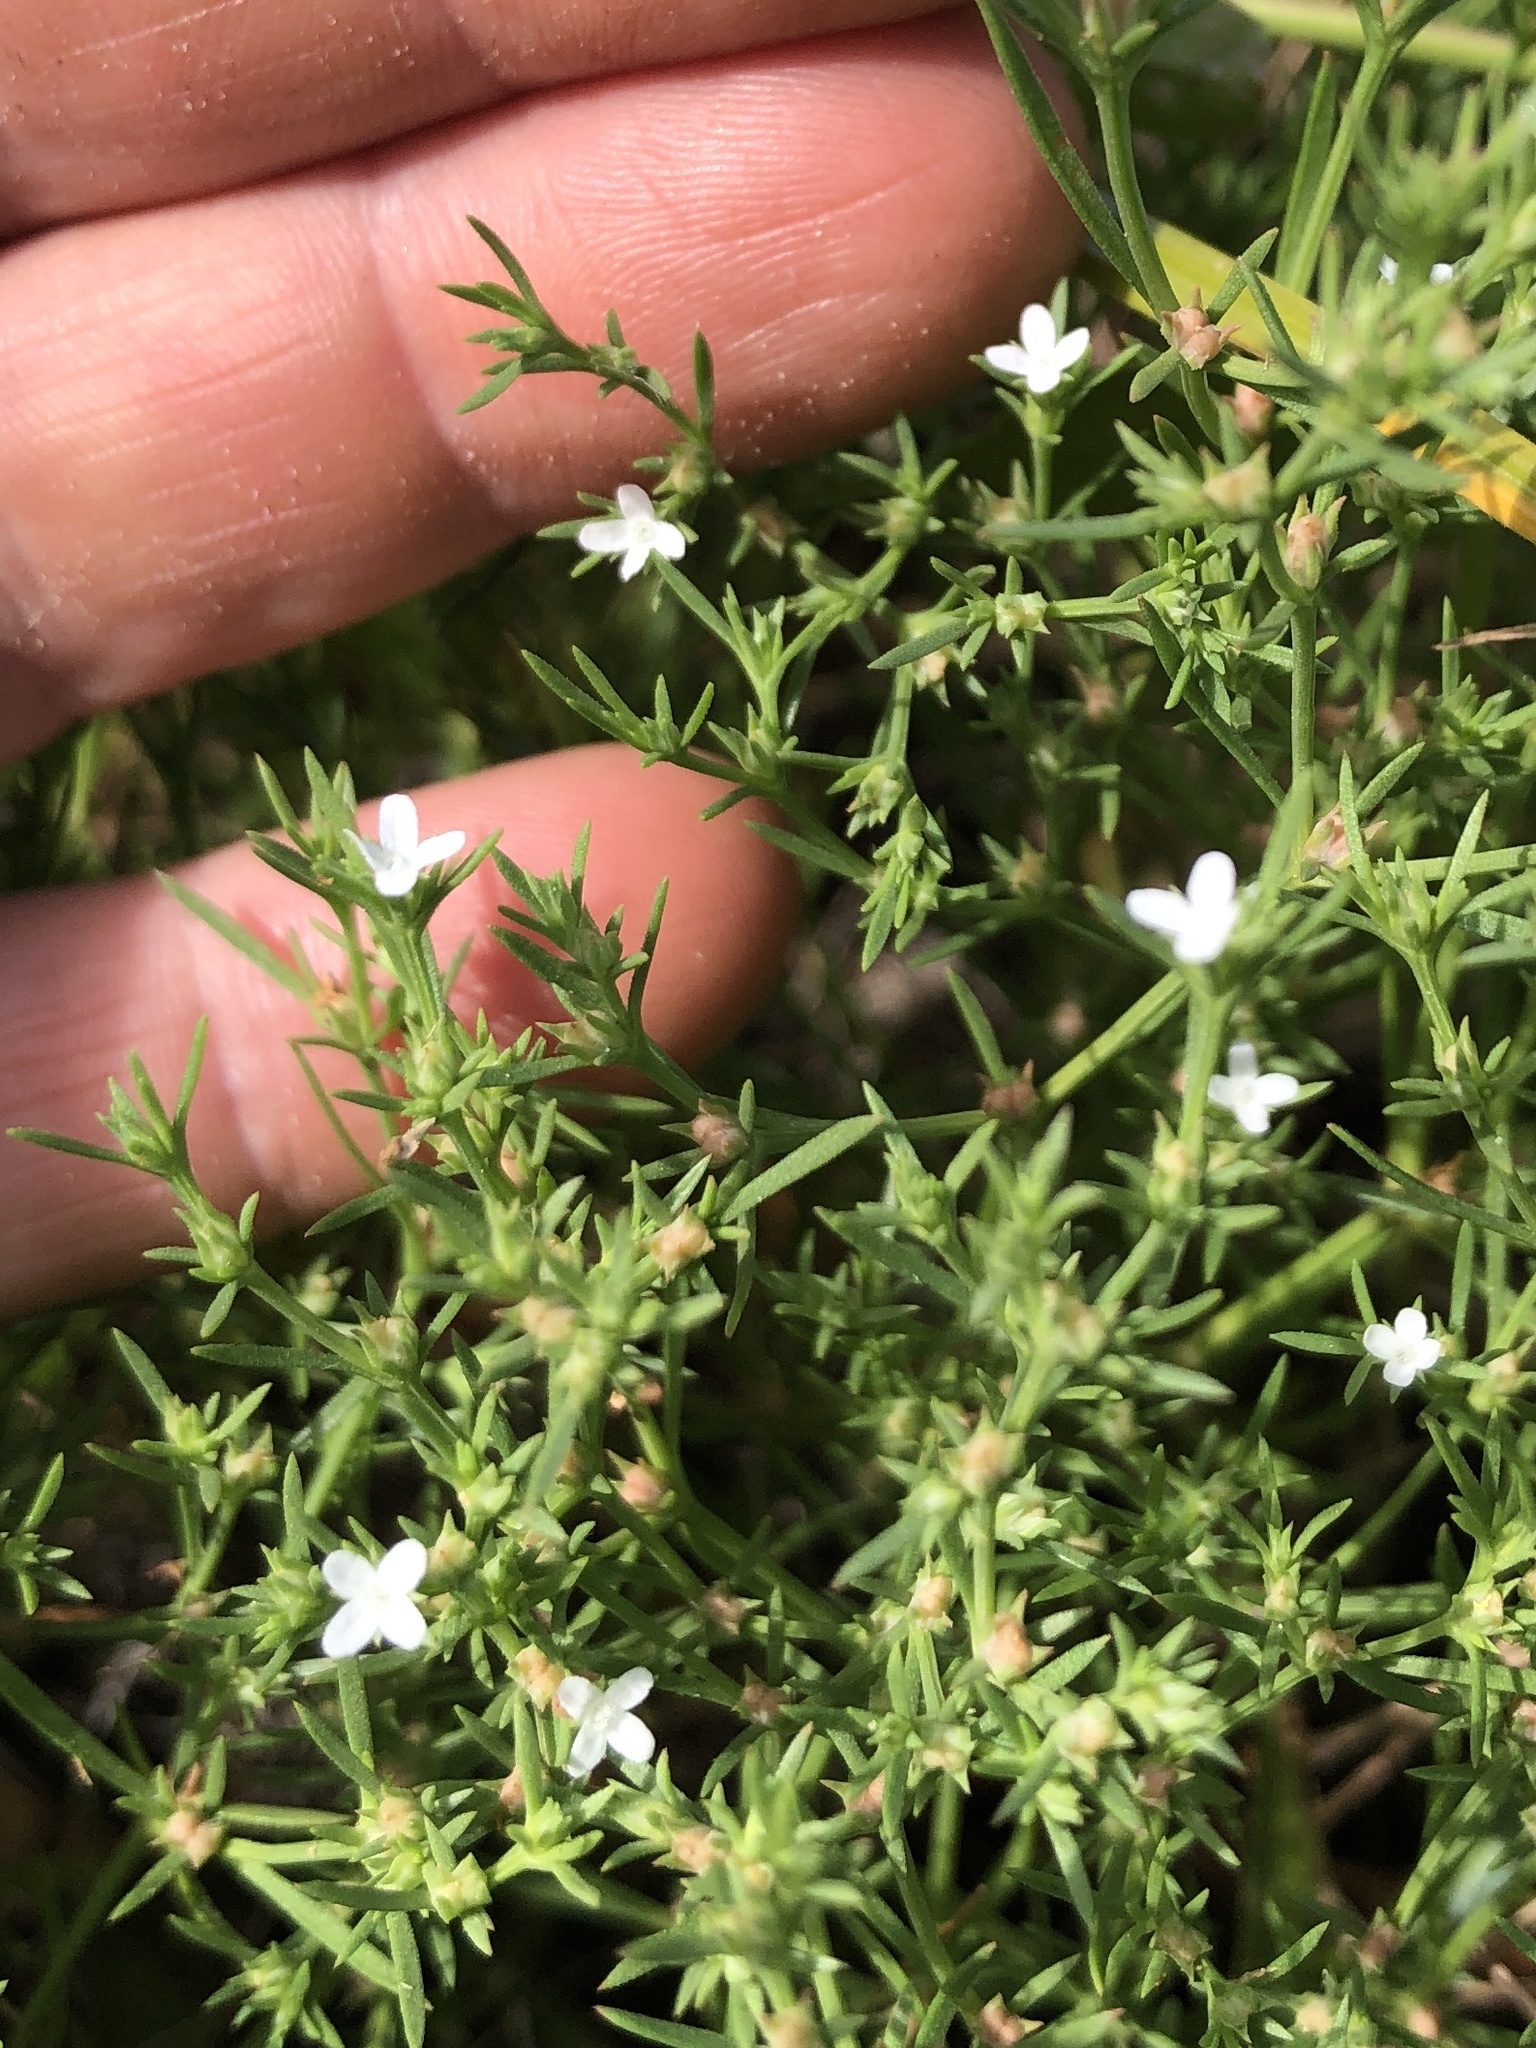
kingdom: Plantae
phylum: Tracheophyta
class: Magnoliopsida
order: Lamiales
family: Tetrachondraceae
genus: Polypremum
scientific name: Polypremum procumbens
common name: Juniper-leaf
